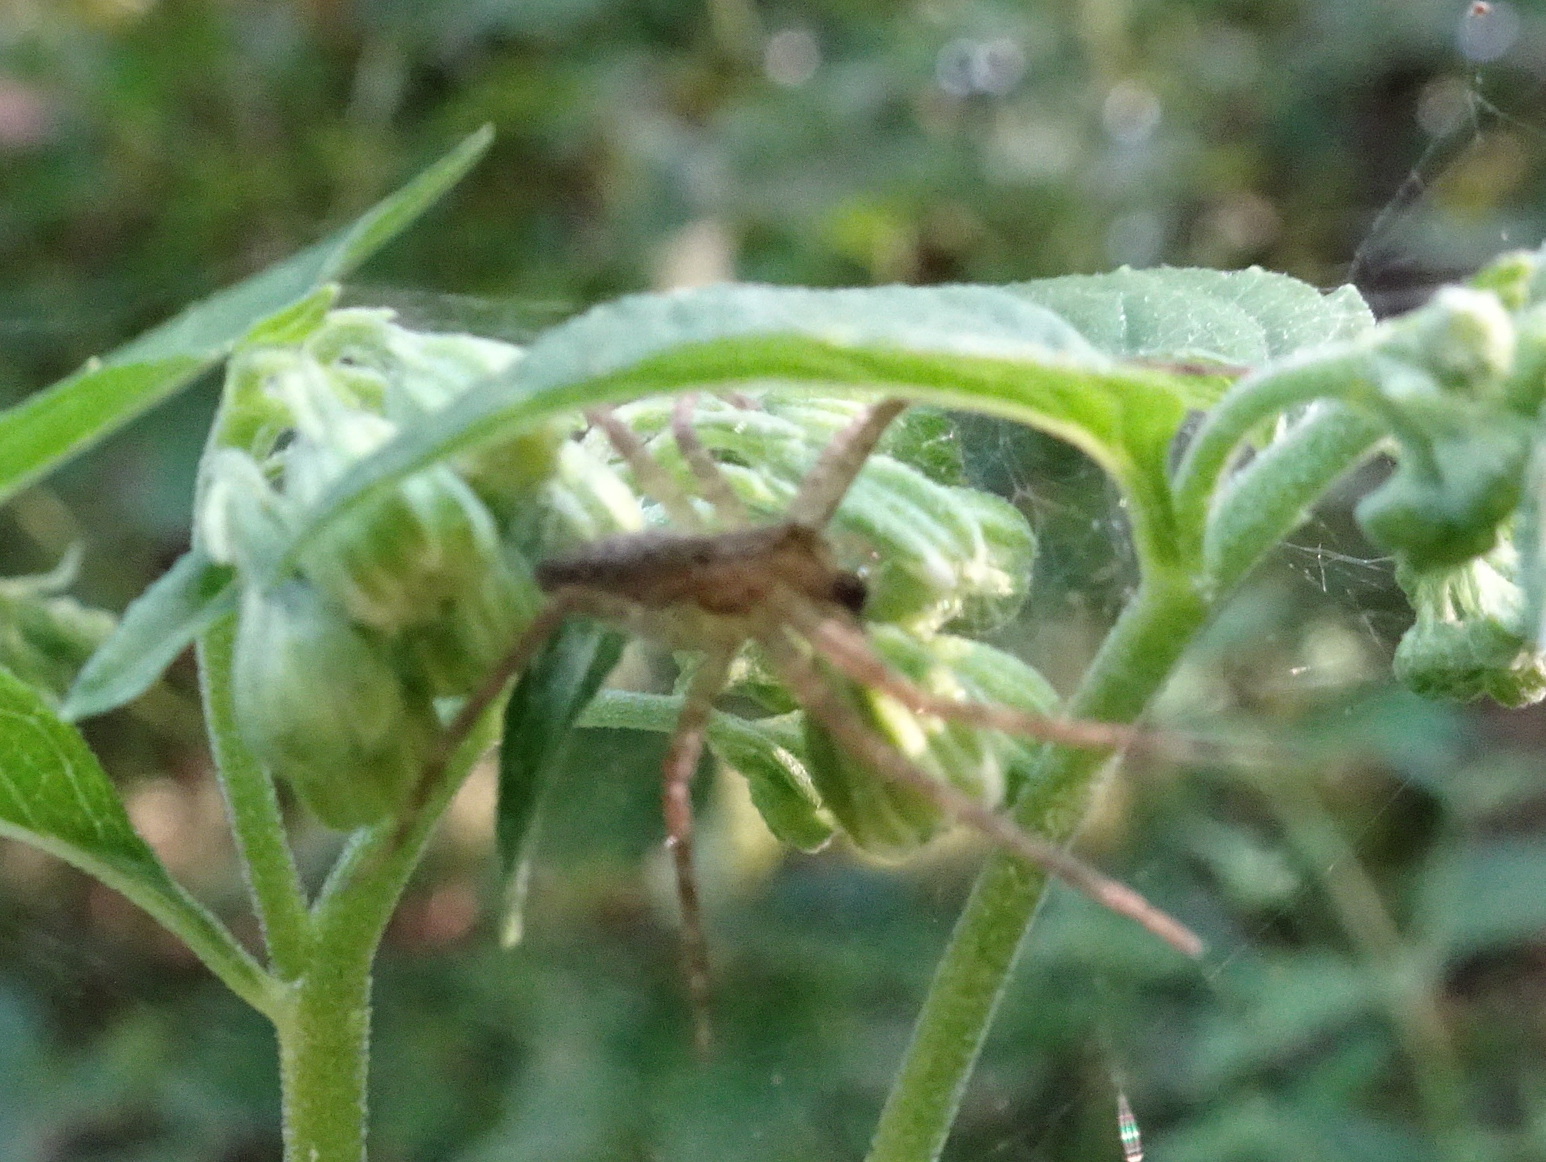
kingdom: Animalia
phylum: Arthropoda
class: Arachnida
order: Araneae
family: Pisauridae
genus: Pisaurina
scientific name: Pisaurina mira
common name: American nursery web spider
